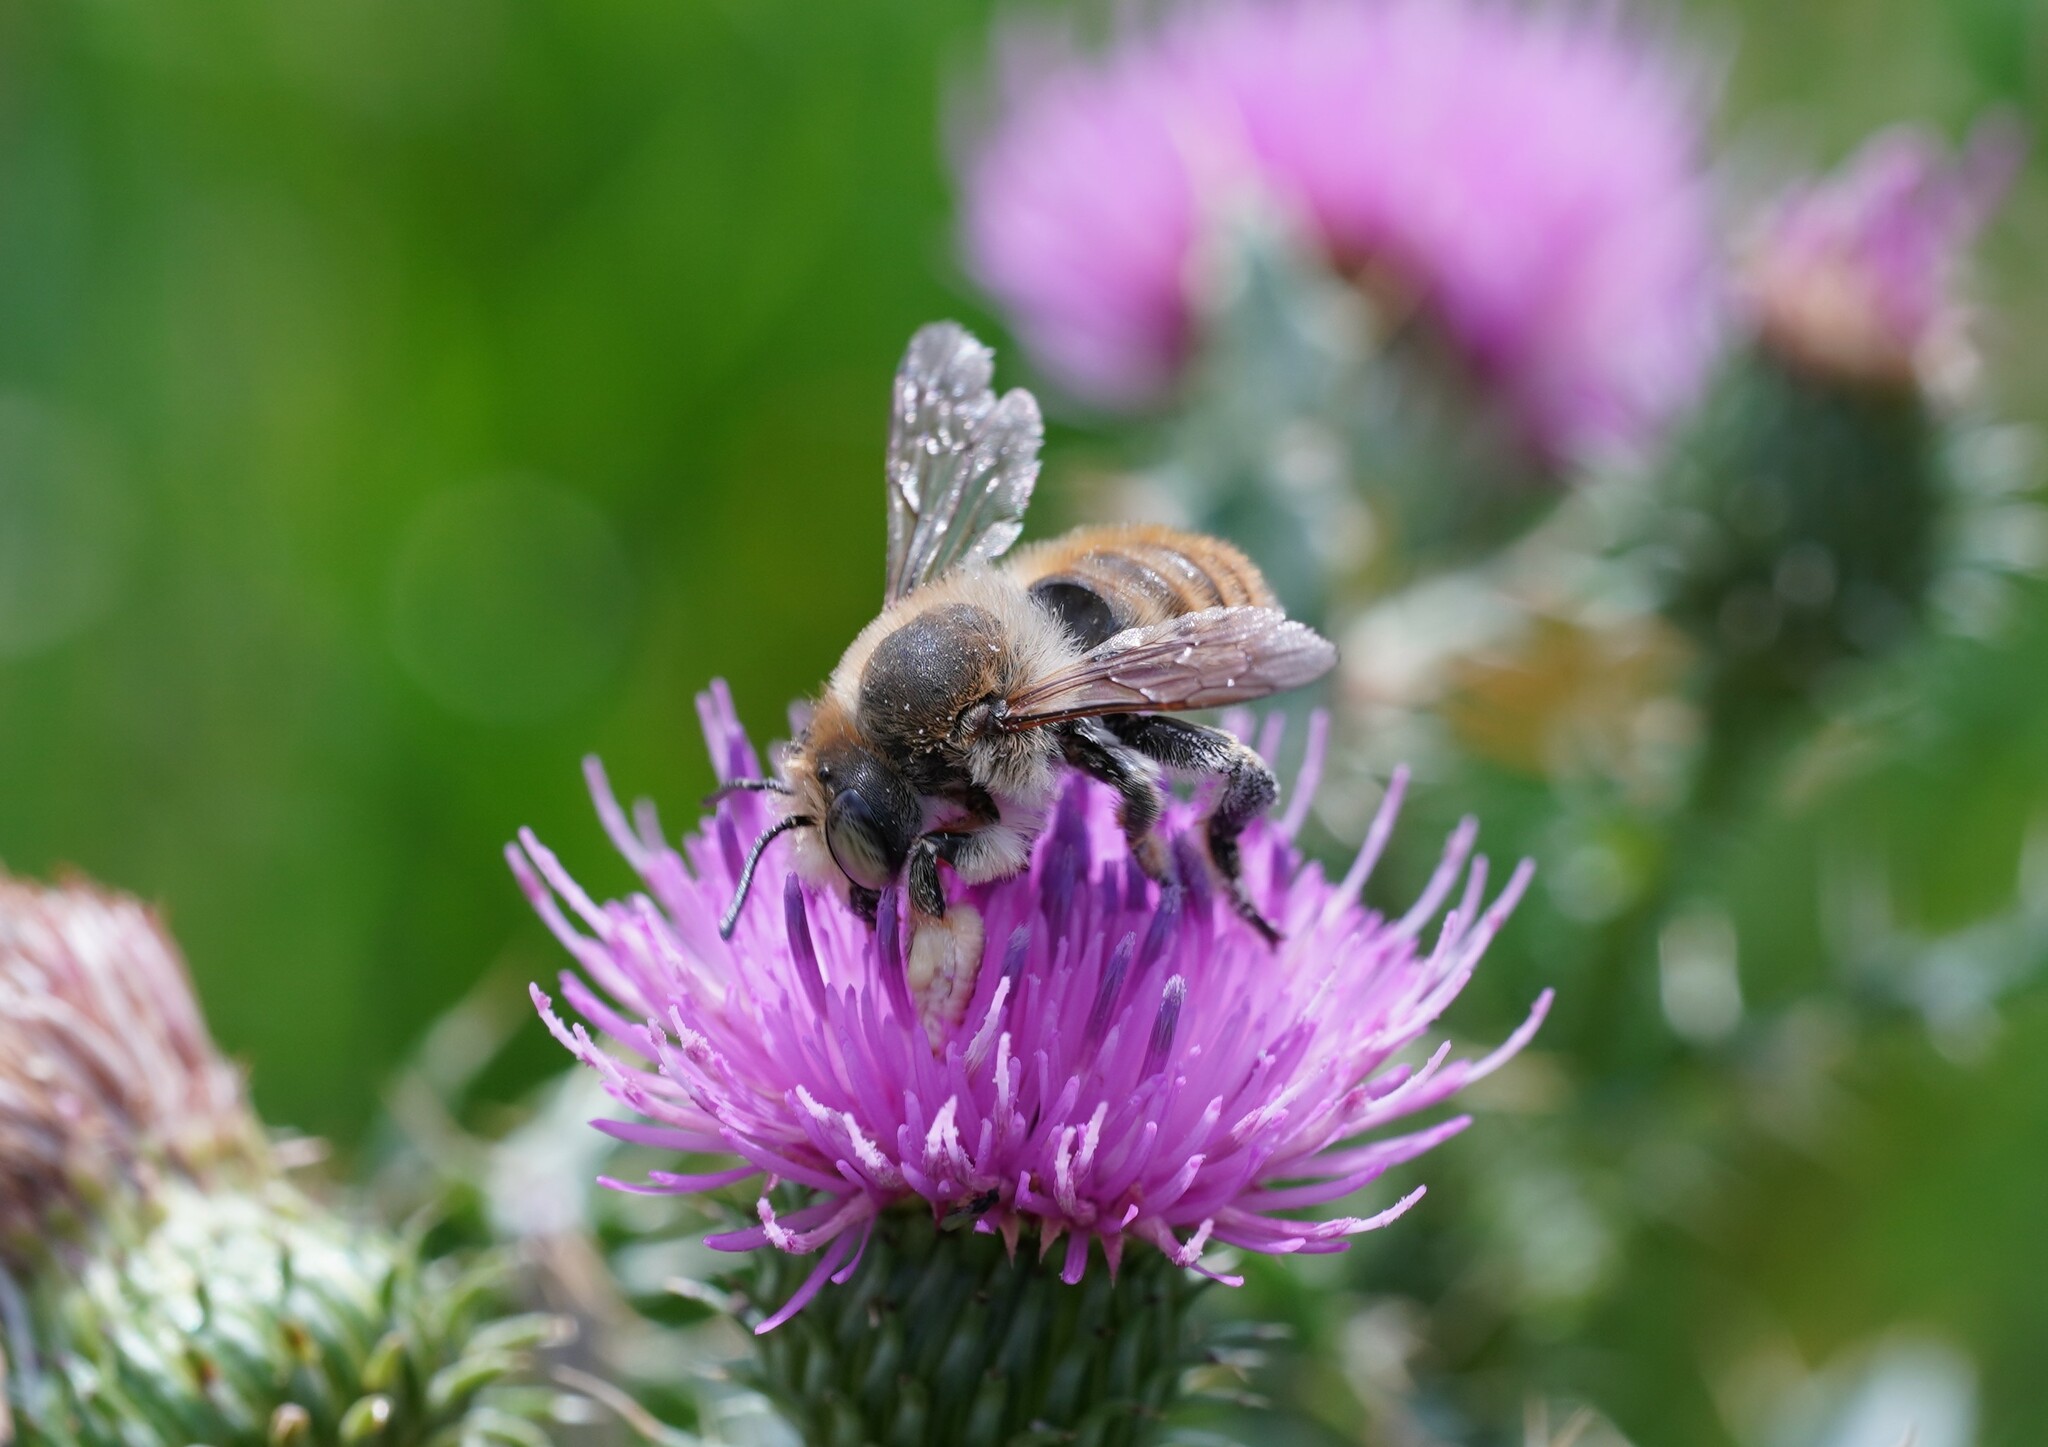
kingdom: Animalia
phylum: Arthropoda
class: Insecta
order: Hymenoptera
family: Megachilidae
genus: Megachile
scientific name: Megachile maritima
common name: Coastal leaf-cutter bee
